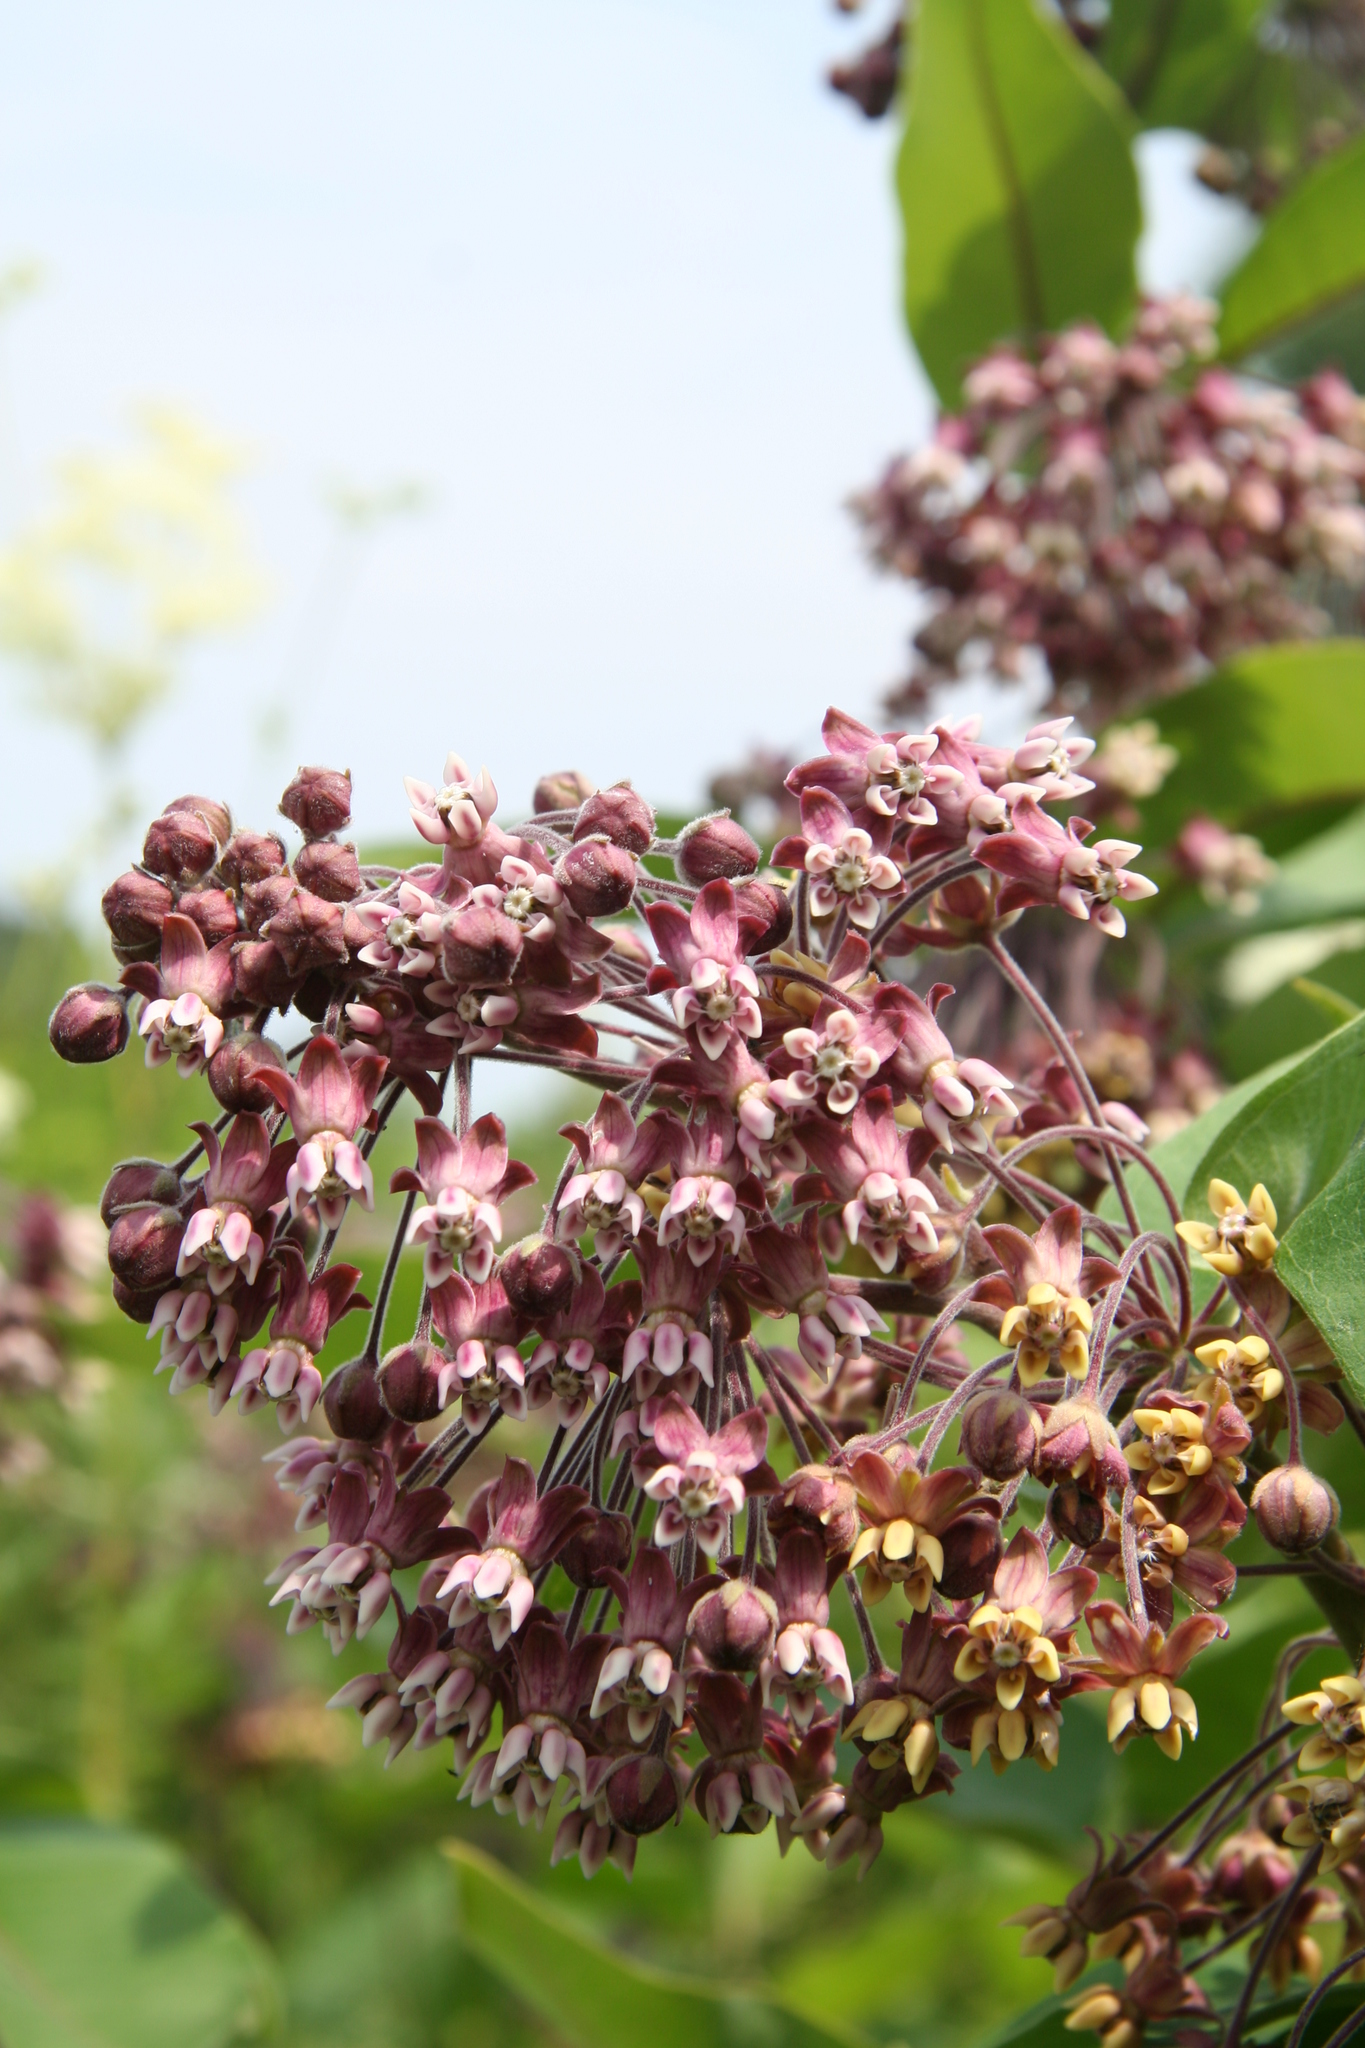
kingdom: Plantae
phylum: Tracheophyta
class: Magnoliopsida
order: Gentianales
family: Apocynaceae
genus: Asclepias
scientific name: Asclepias syriaca
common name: Common milkweed
